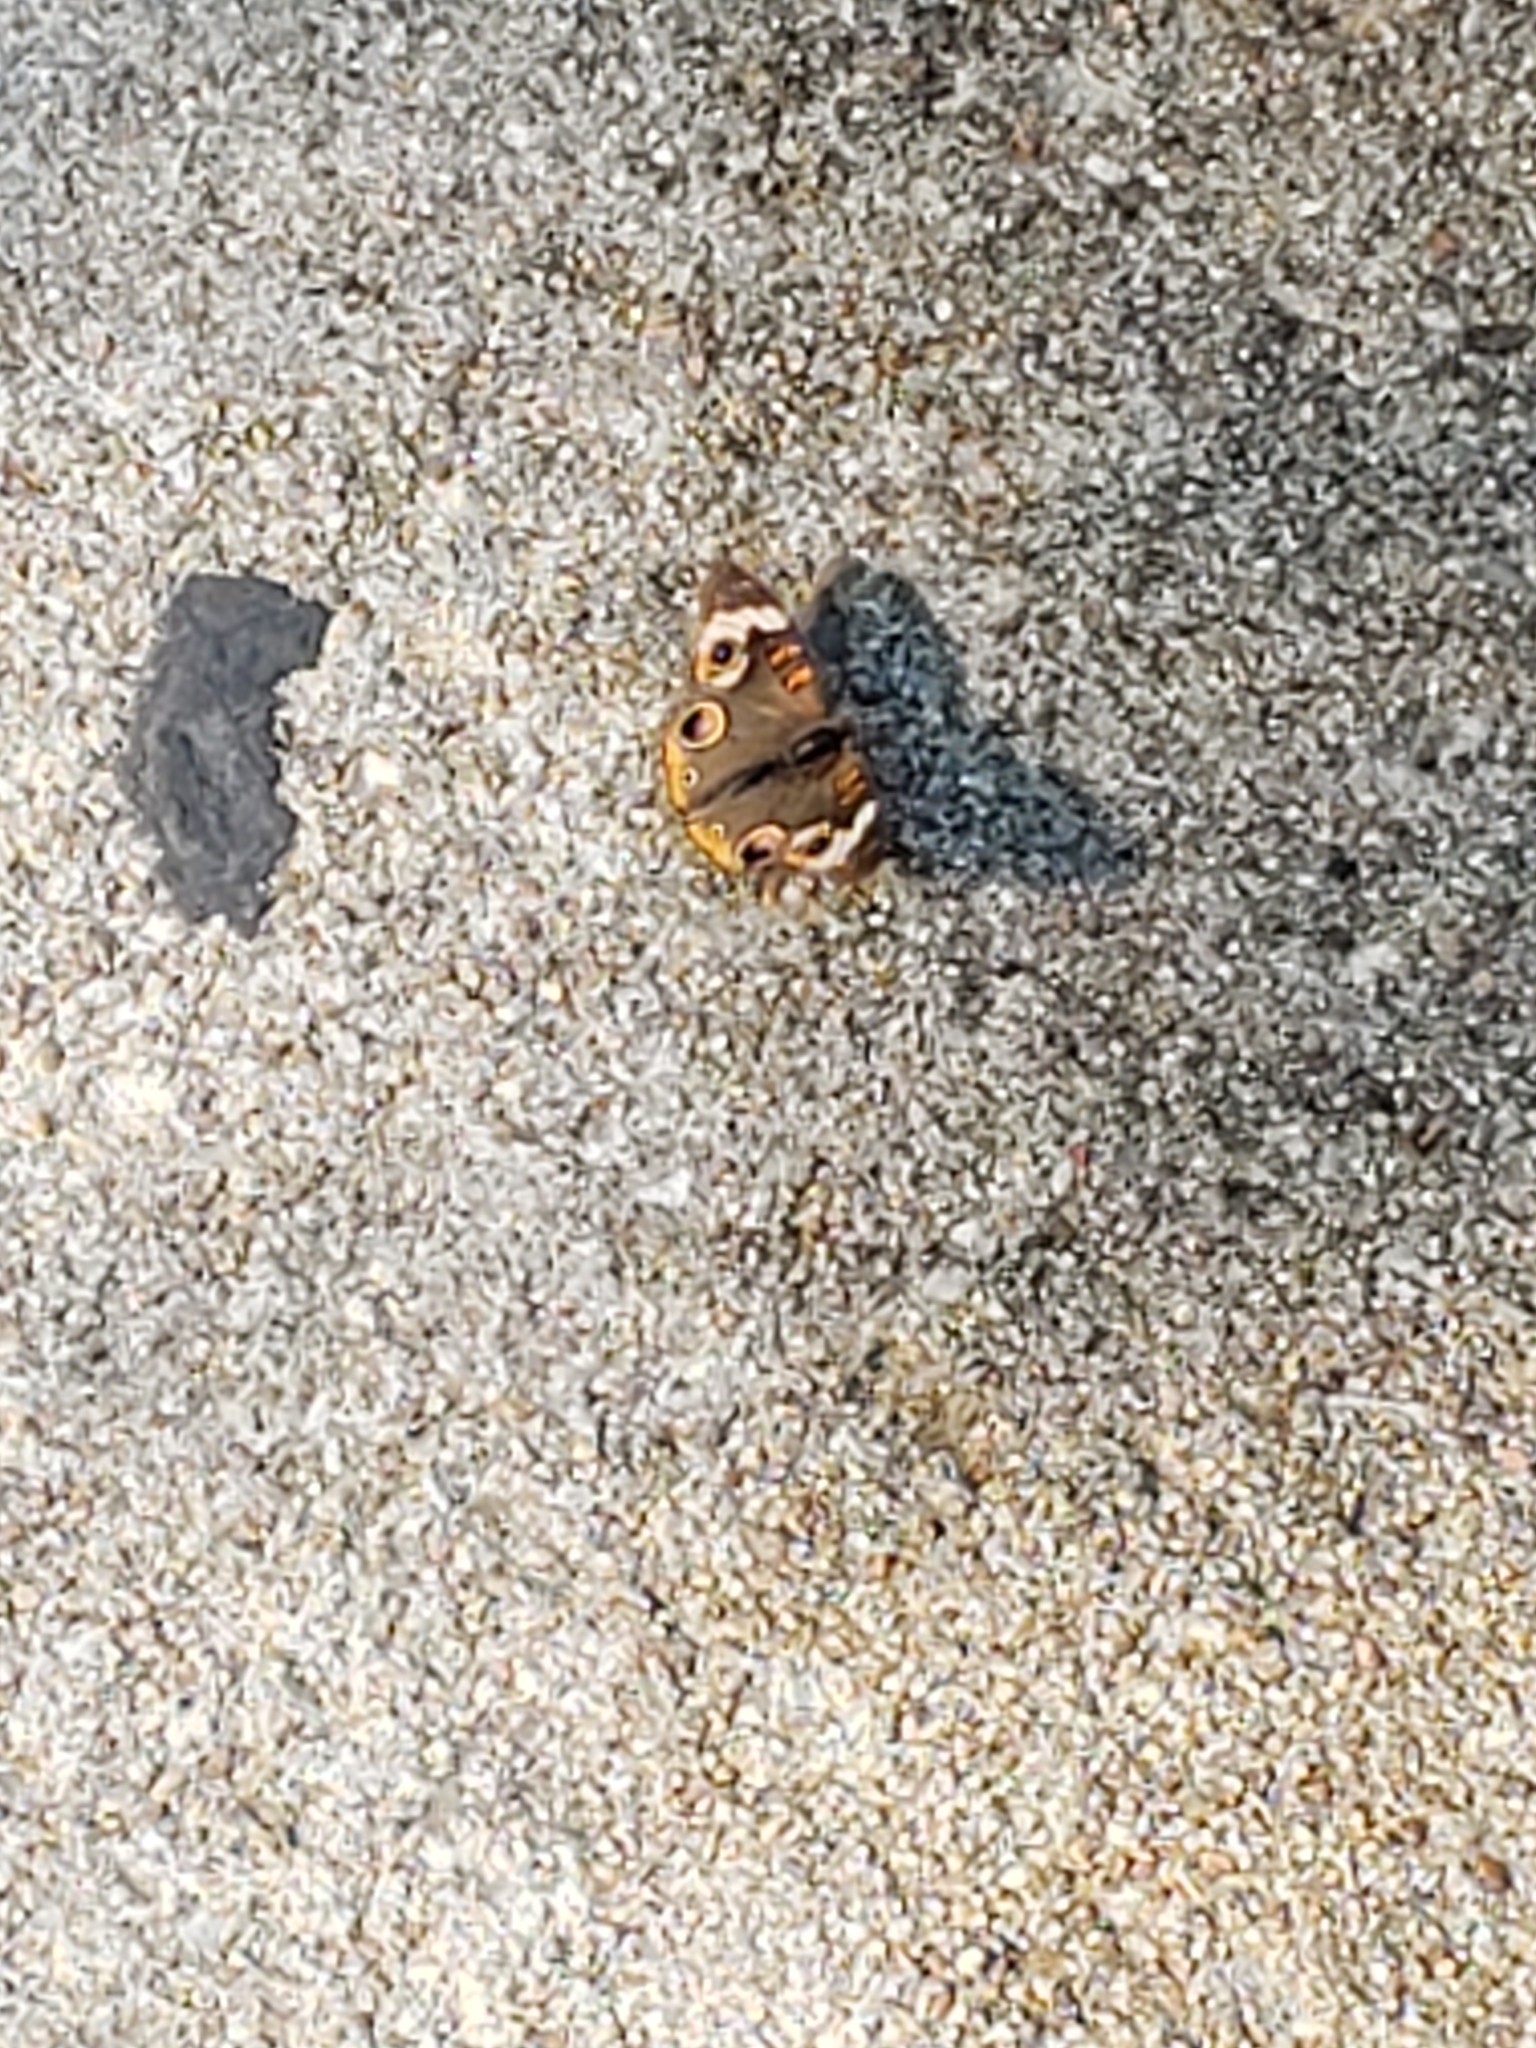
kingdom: Animalia
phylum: Arthropoda
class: Insecta
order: Lepidoptera
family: Nymphalidae
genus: Junonia
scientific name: Junonia coenia
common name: Common buckeye
